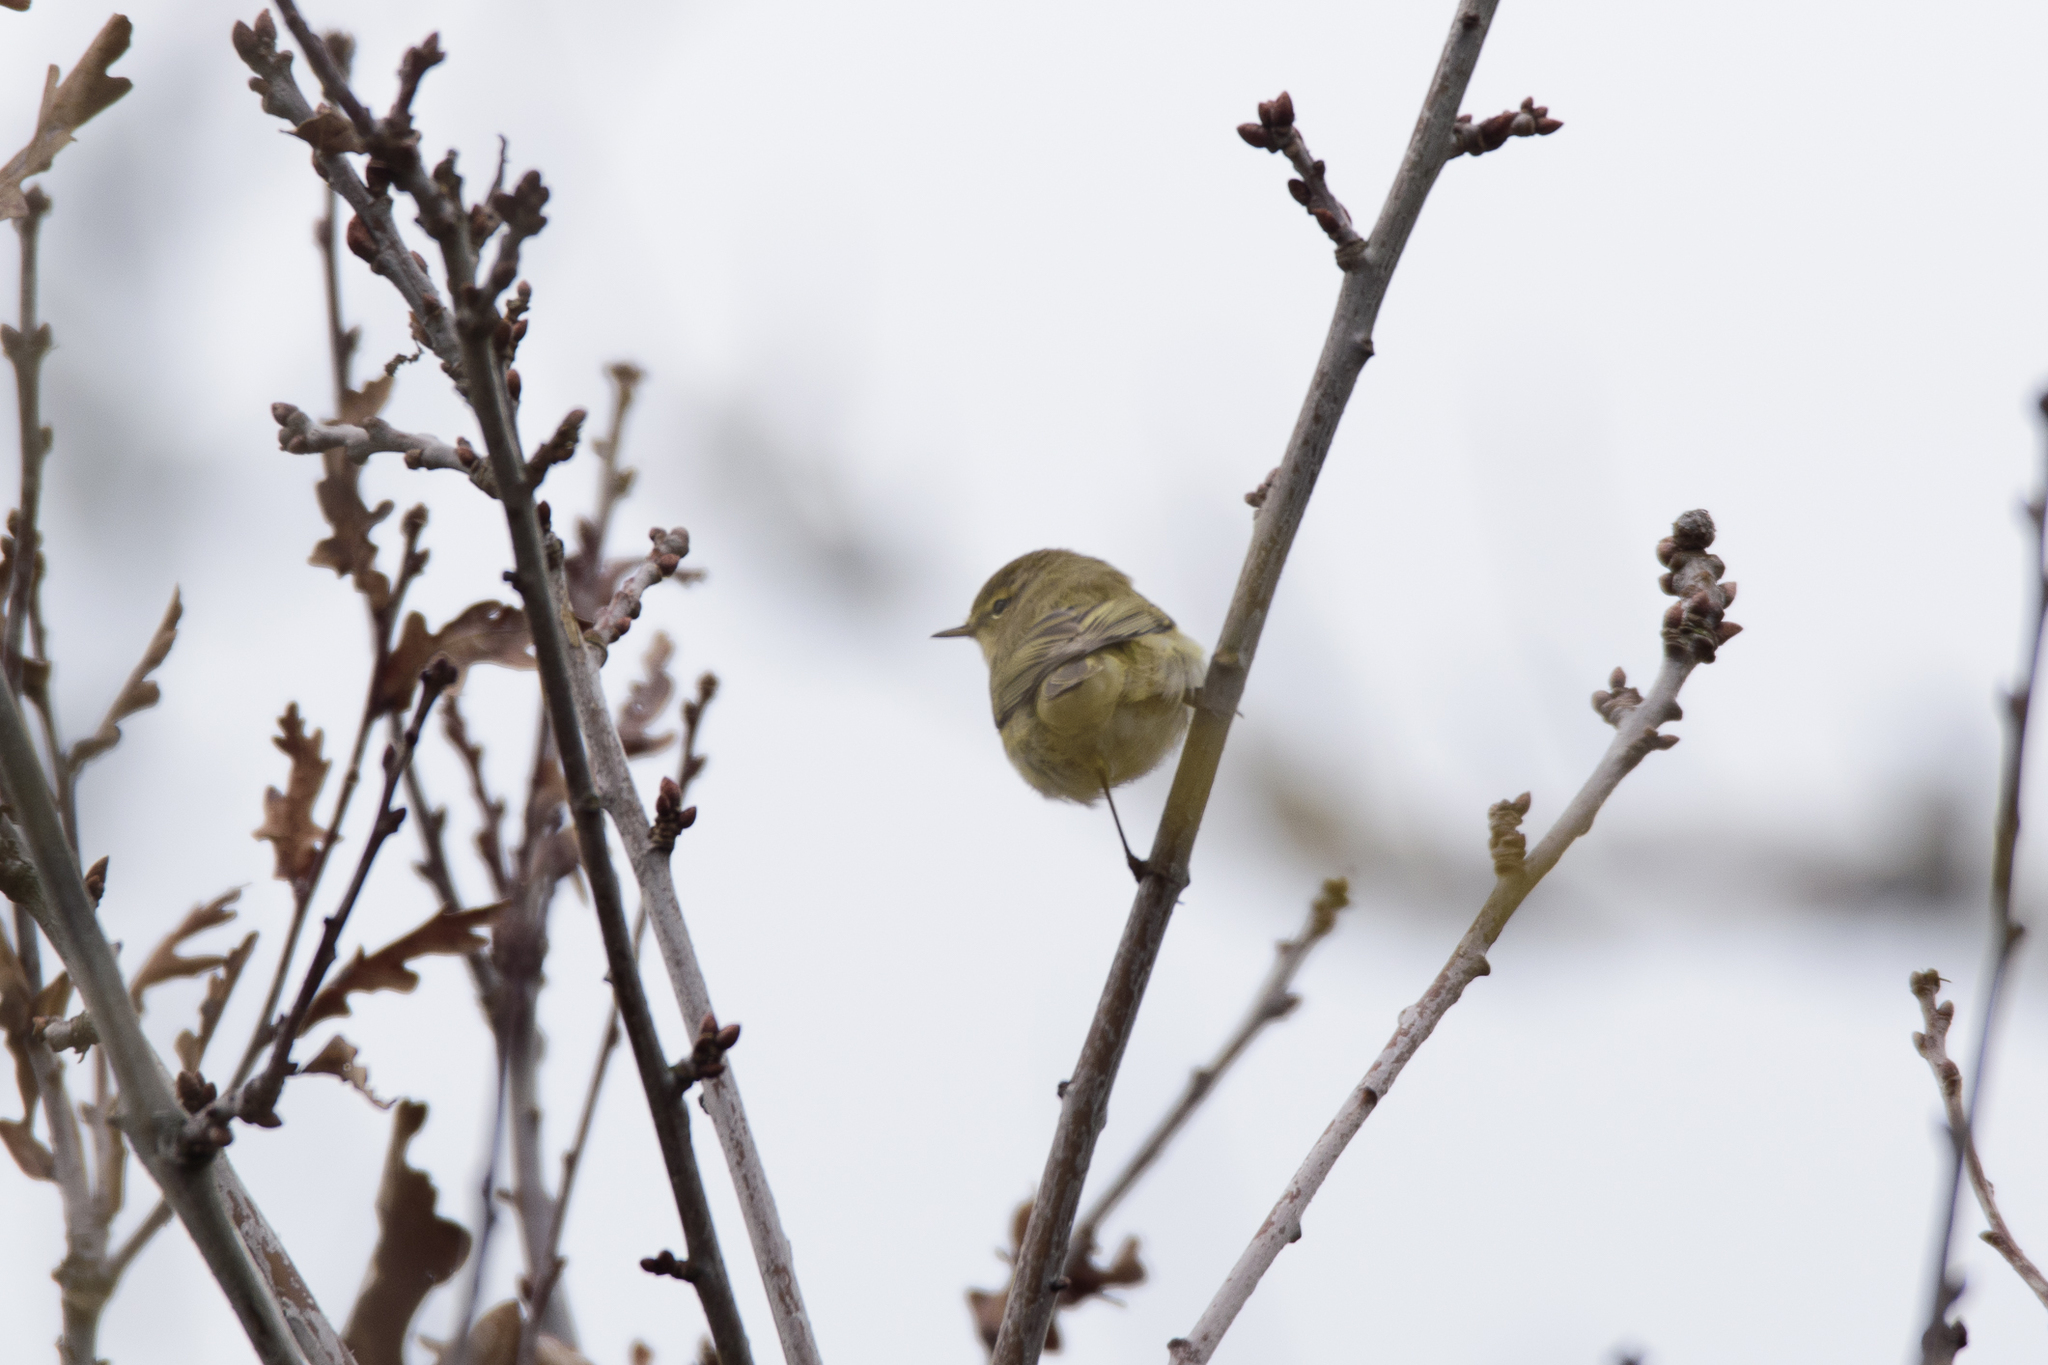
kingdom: Animalia
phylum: Chordata
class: Aves
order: Passeriformes
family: Phylloscopidae
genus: Phylloscopus
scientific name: Phylloscopus collybita
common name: Common chiffchaff
